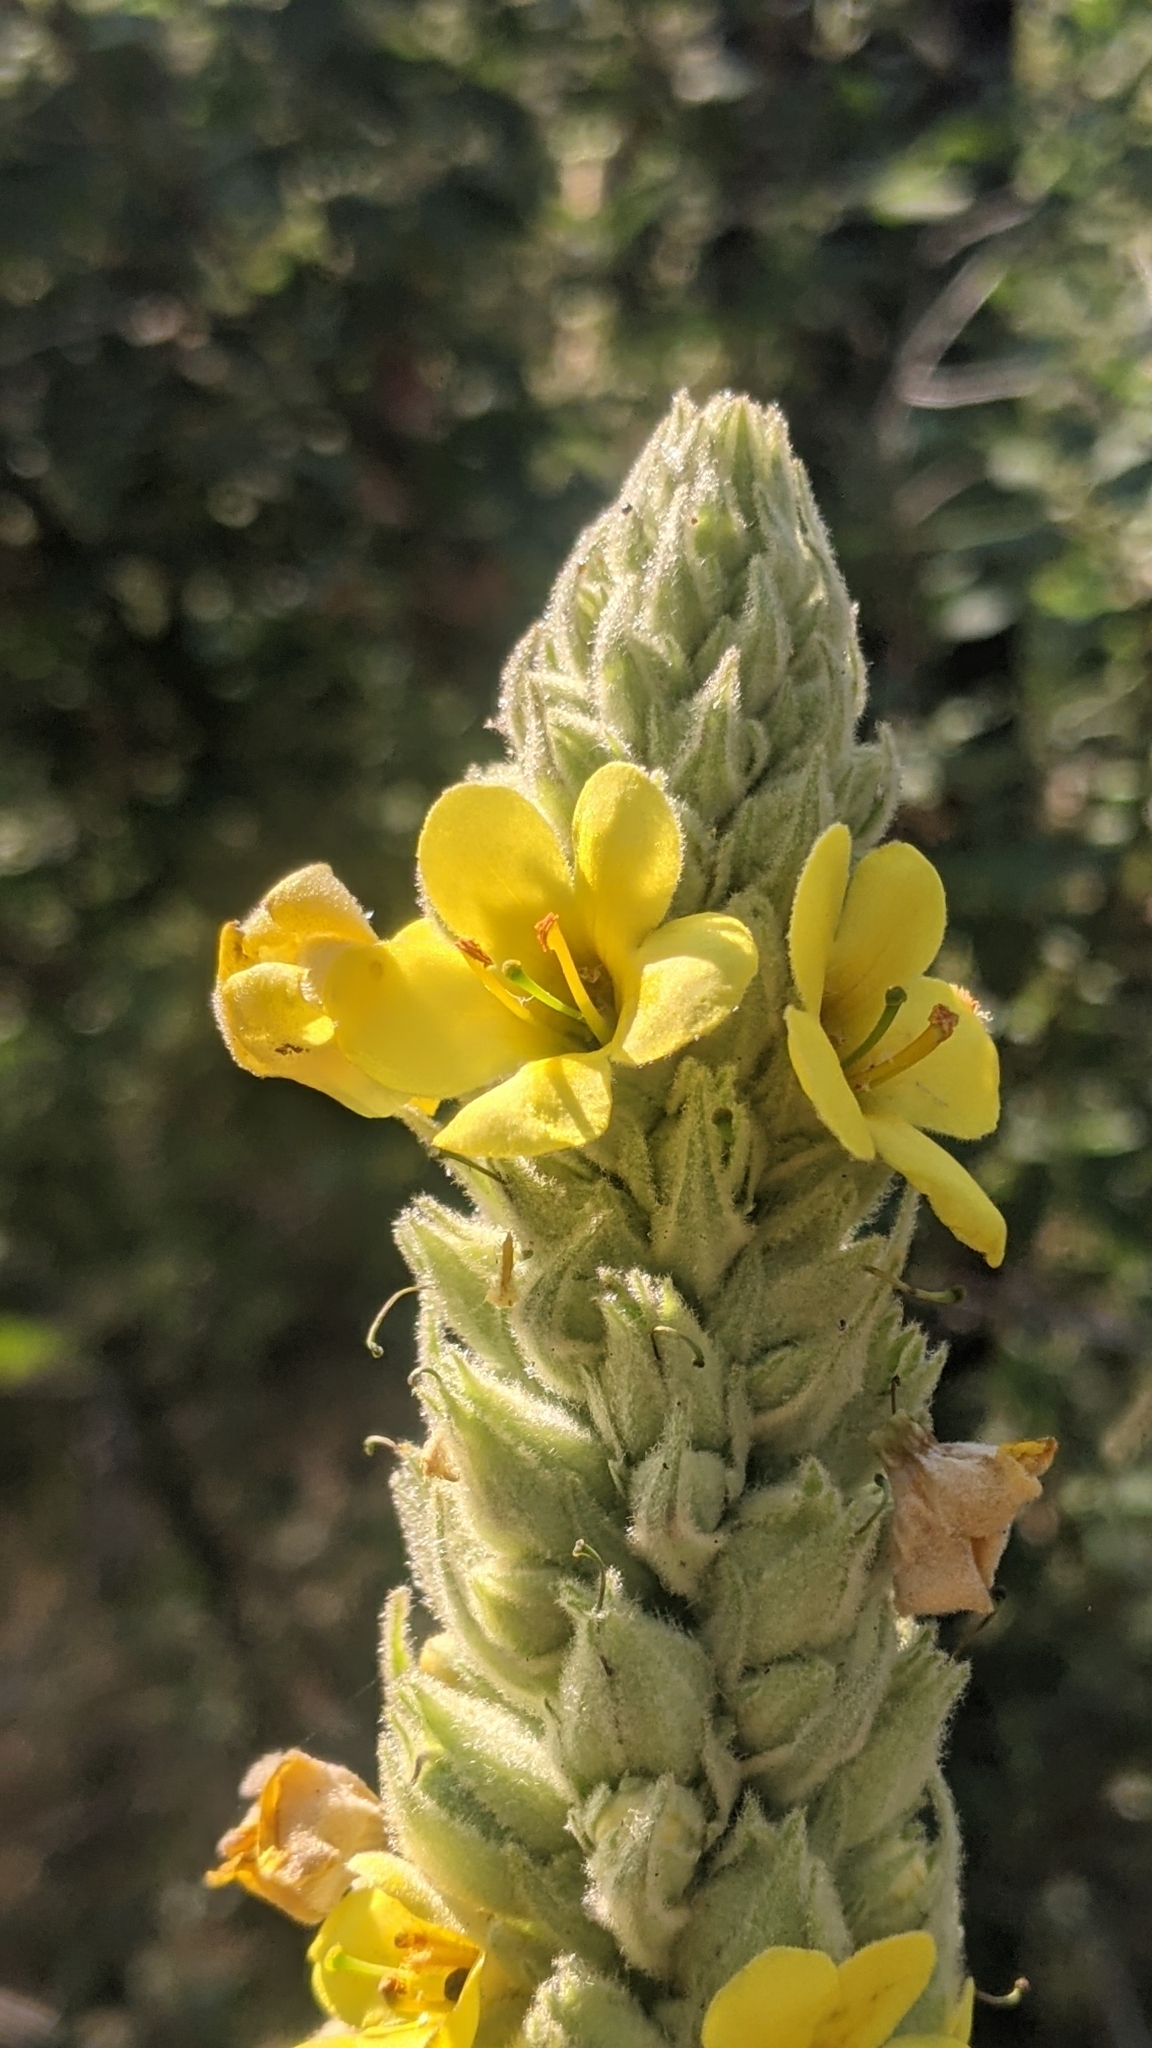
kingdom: Plantae
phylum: Tracheophyta
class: Magnoliopsida
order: Lamiales
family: Scrophulariaceae
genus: Verbascum
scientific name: Verbascum thapsus
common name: Common mullein
